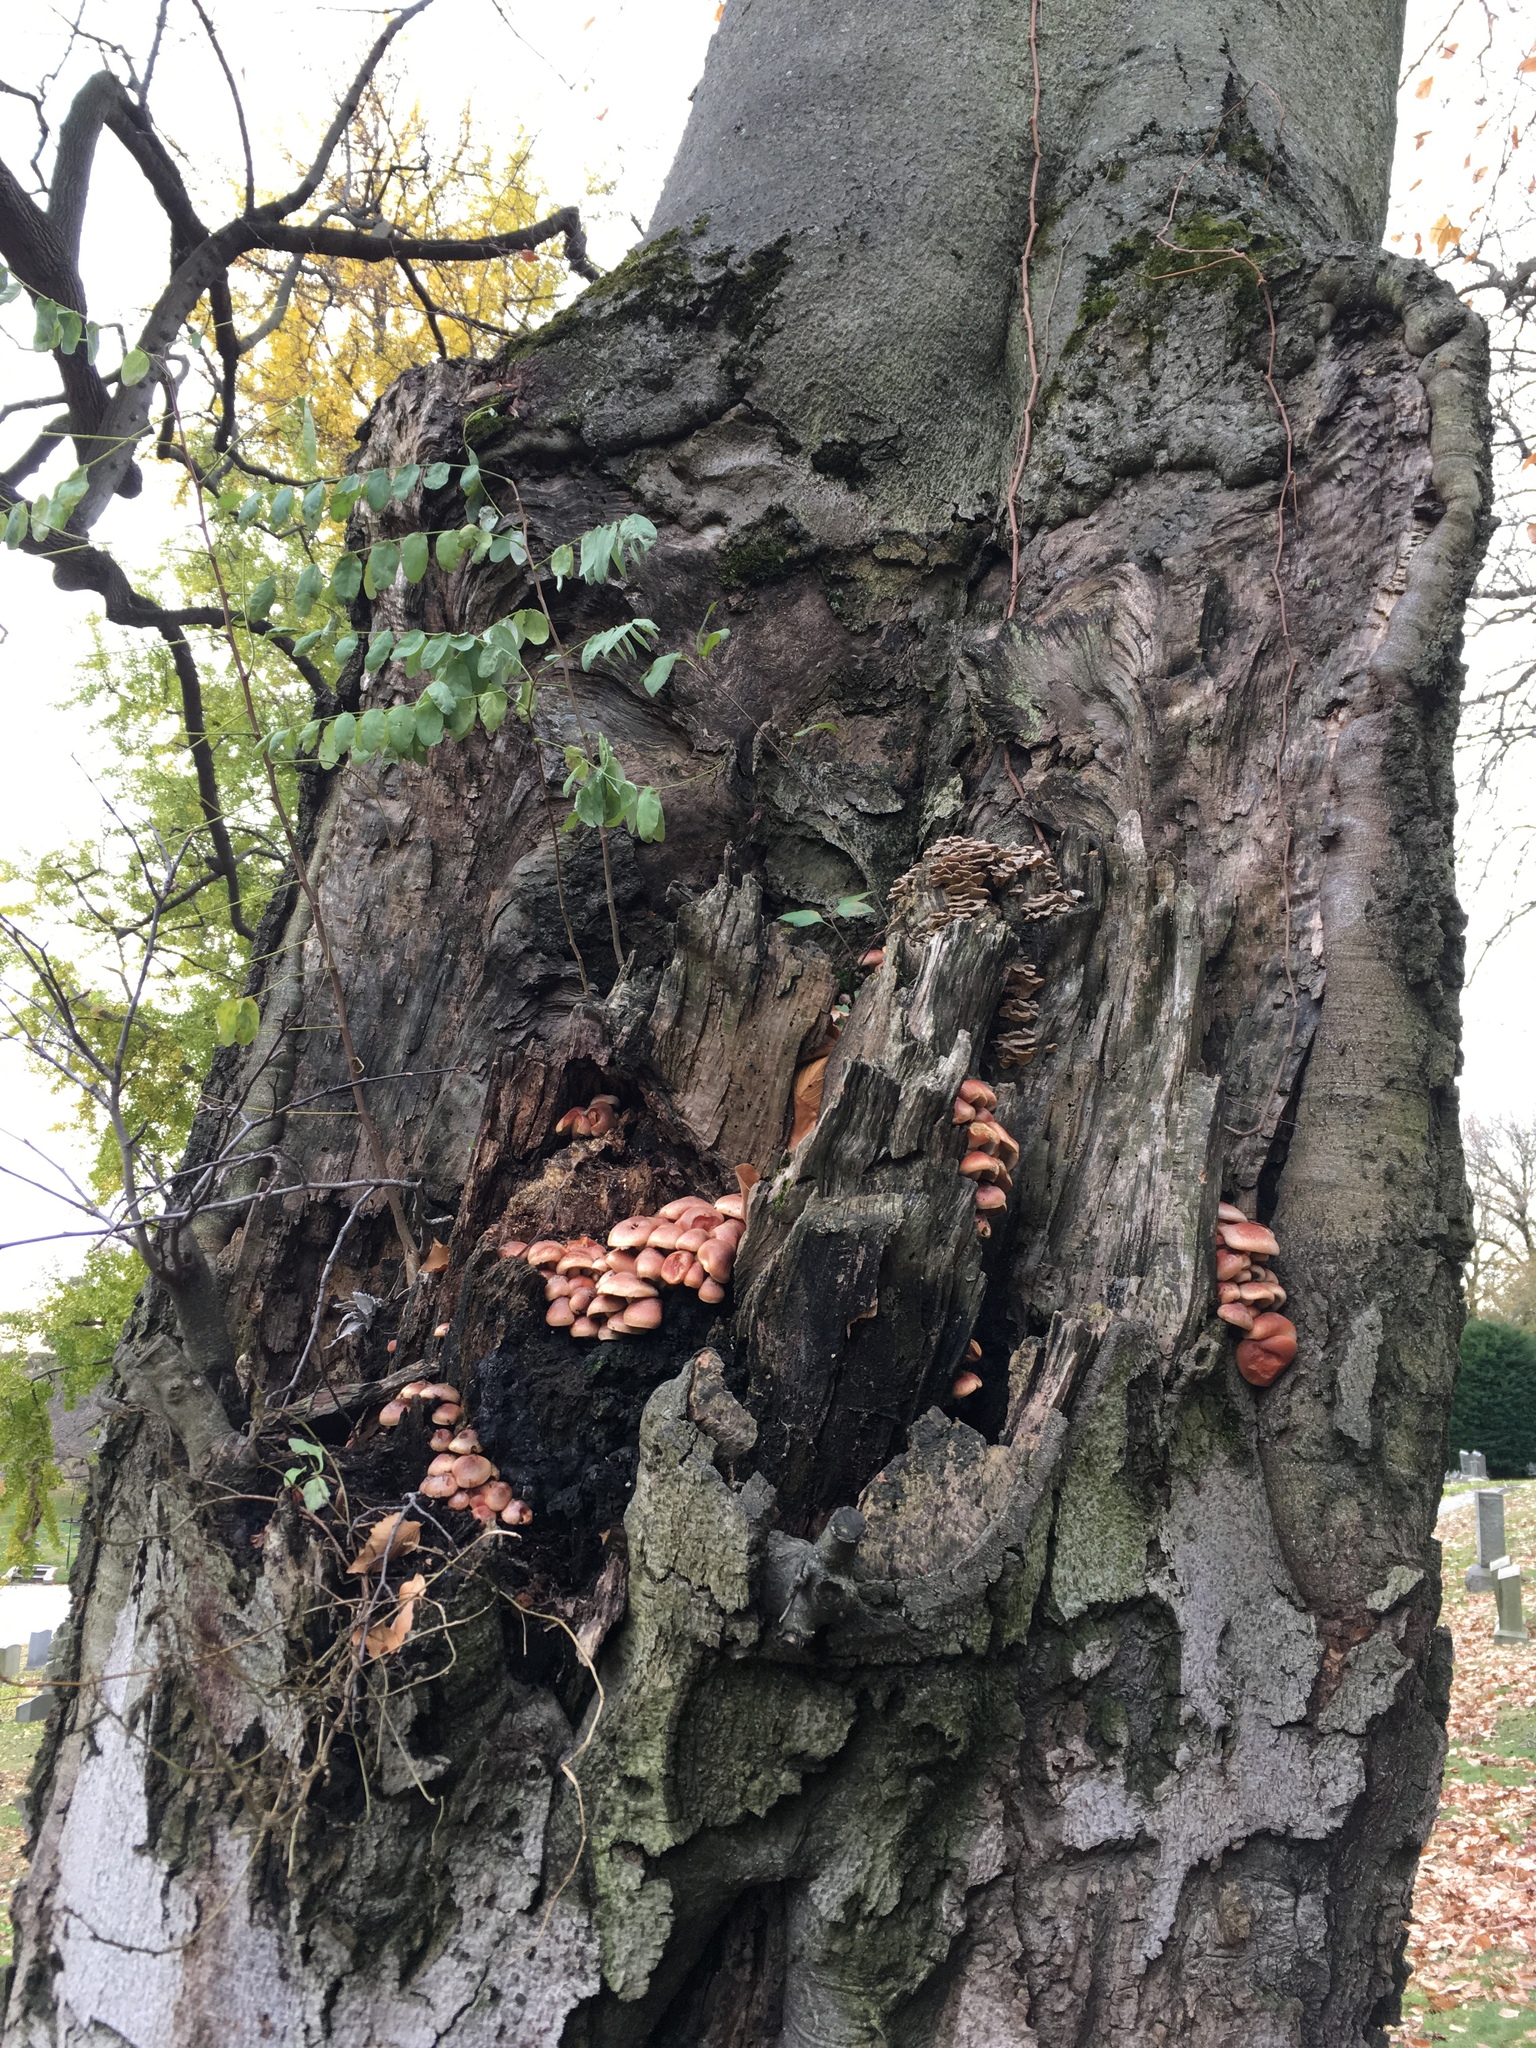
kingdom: Fungi
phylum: Basidiomycota
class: Agaricomycetes
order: Agaricales
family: Strophariaceae
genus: Hypholoma
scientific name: Hypholoma lateritium
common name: Brick caps
